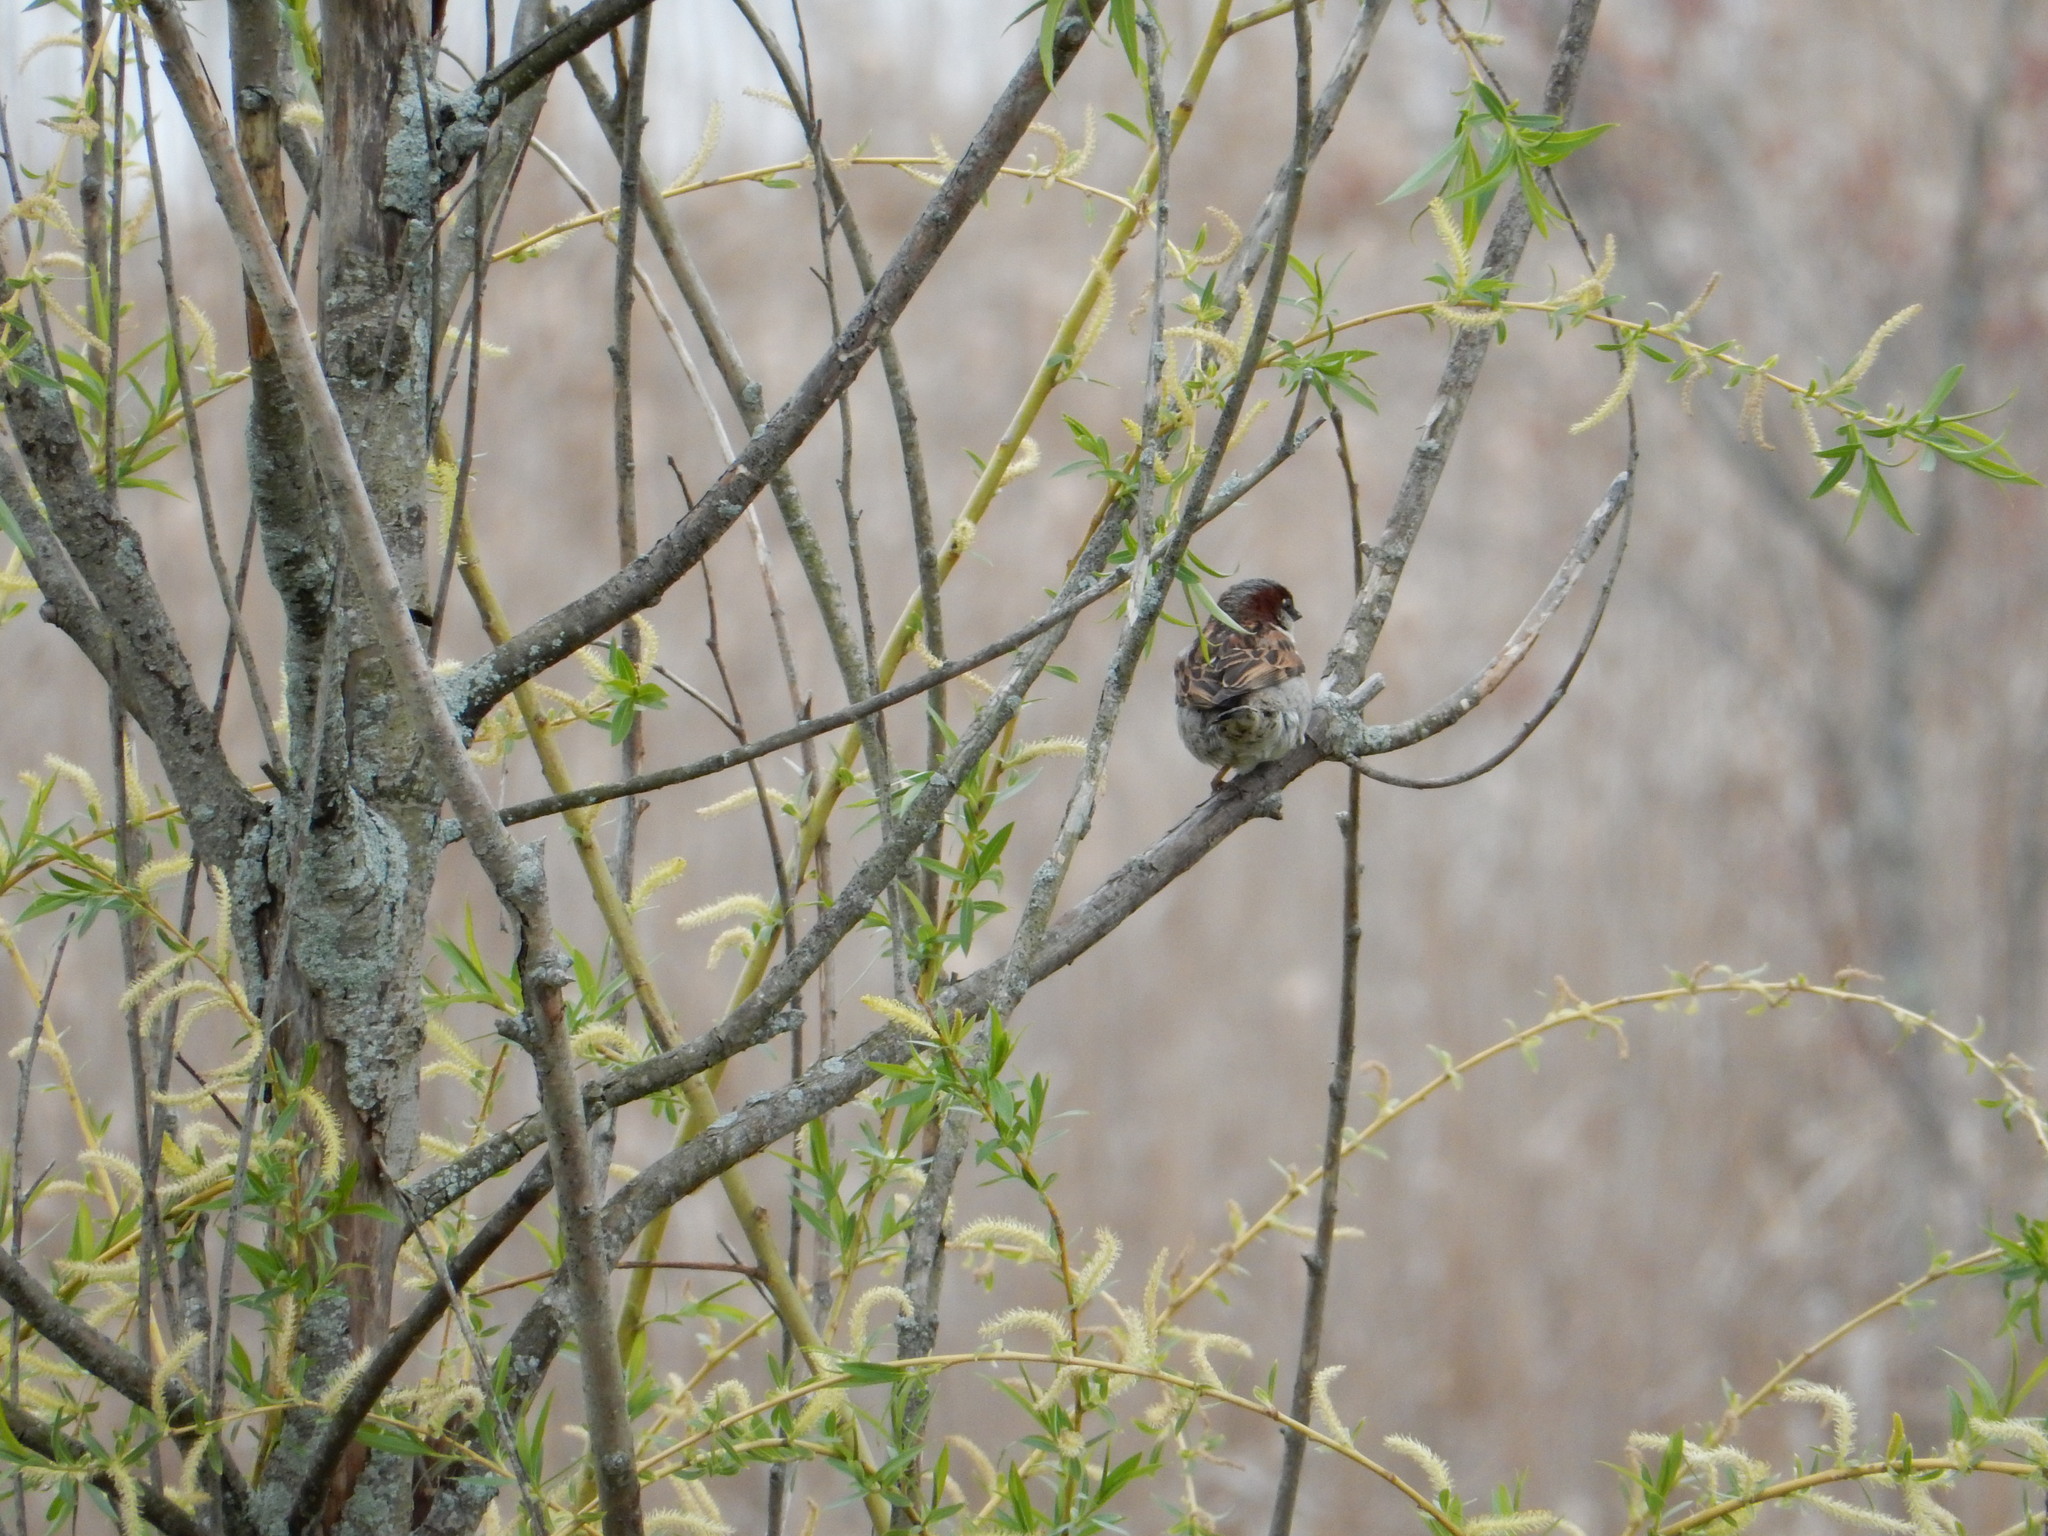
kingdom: Animalia
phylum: Chordata
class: Aves
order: Passeriformes
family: Passeridae
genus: Passer
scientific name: Passer domesticus
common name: House sparrow
